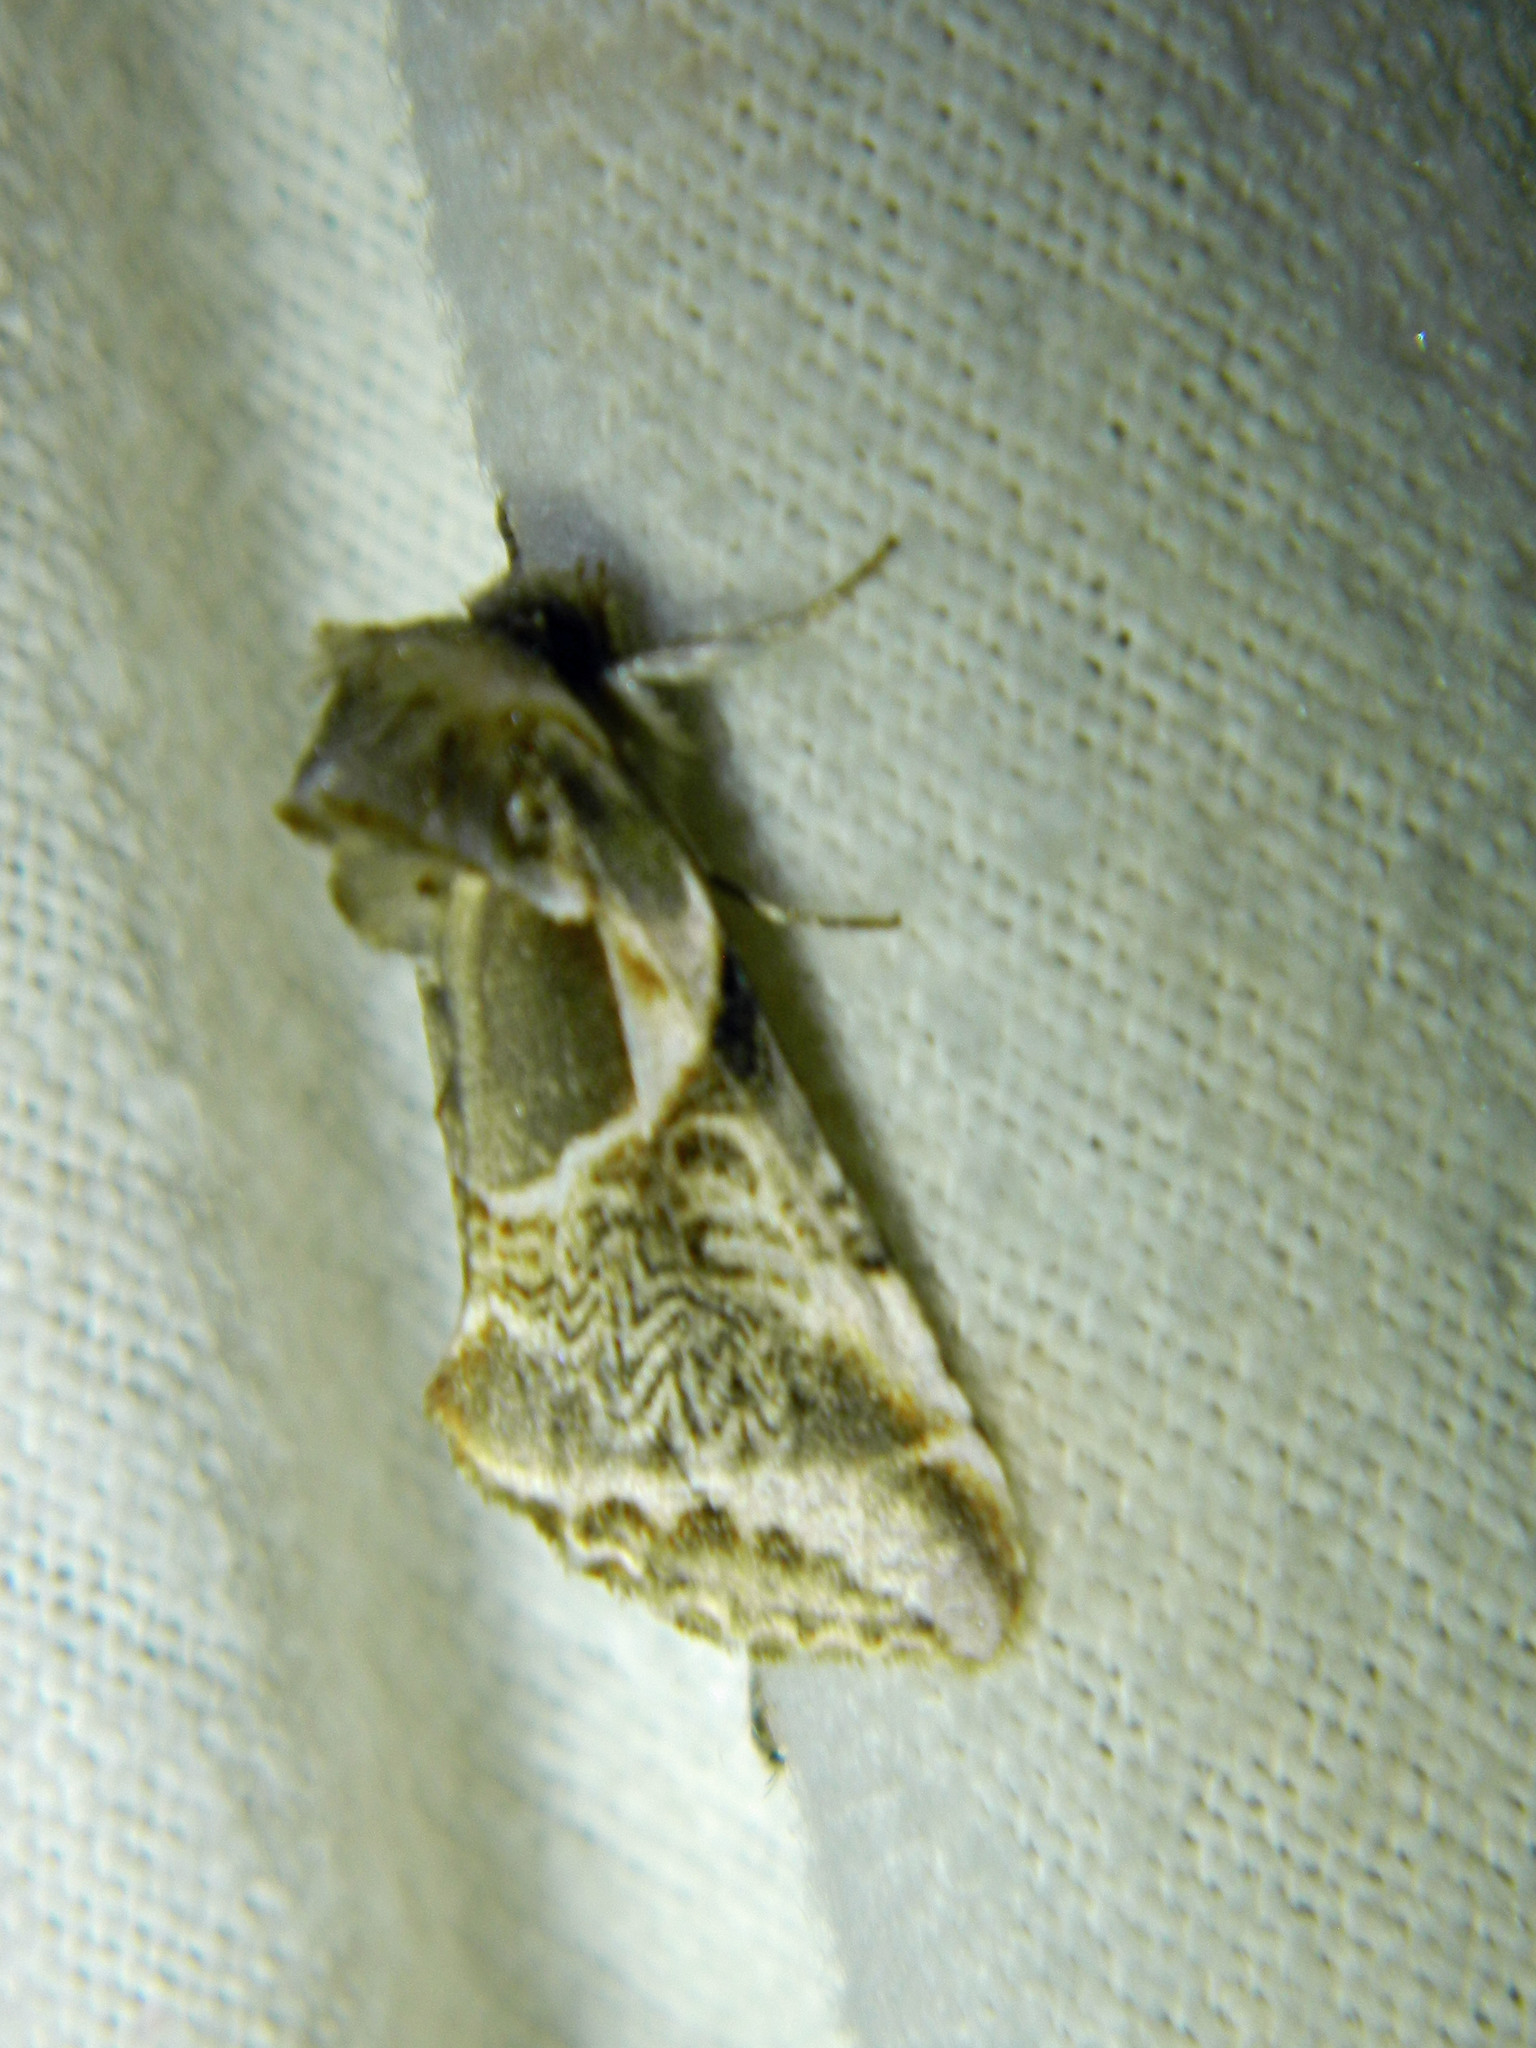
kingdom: Animalia
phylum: Arthropoda
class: Insecta
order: Lepidoptera
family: Drepanidae
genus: Habrosyne
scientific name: Habrosyne scripta
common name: Lettered habrosyne moth
